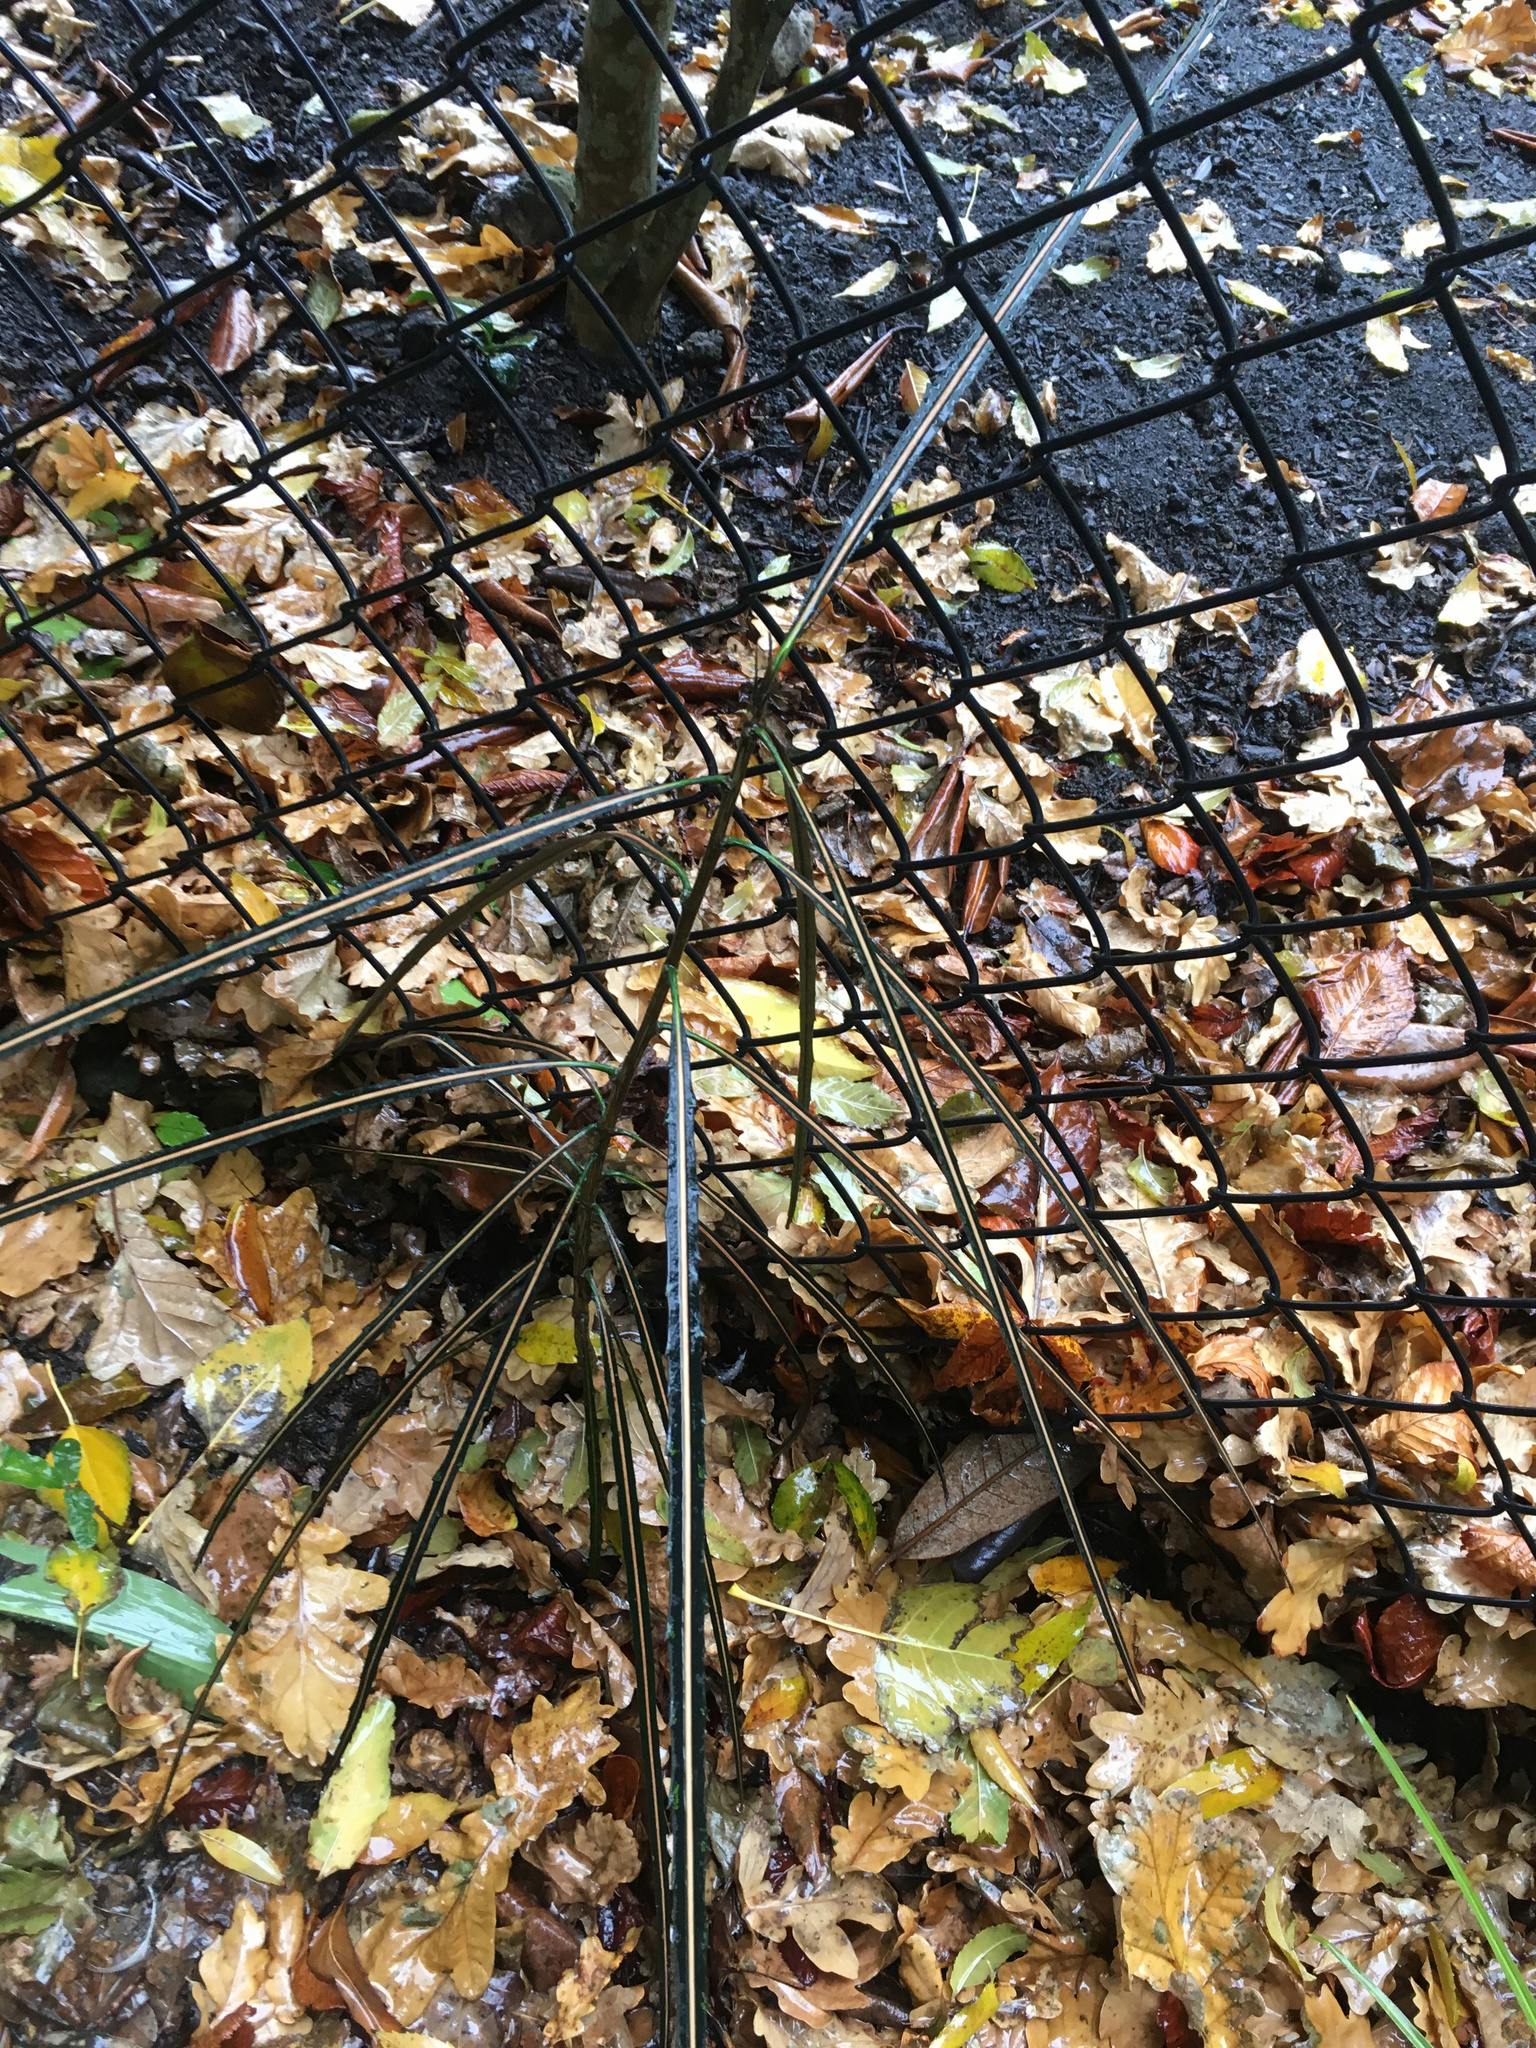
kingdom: Plantae
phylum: Tracheophyta
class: Magnoliopsida
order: Apiales
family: Araliaceae
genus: Pseudopanax
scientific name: Pseudopanax crassifolius
